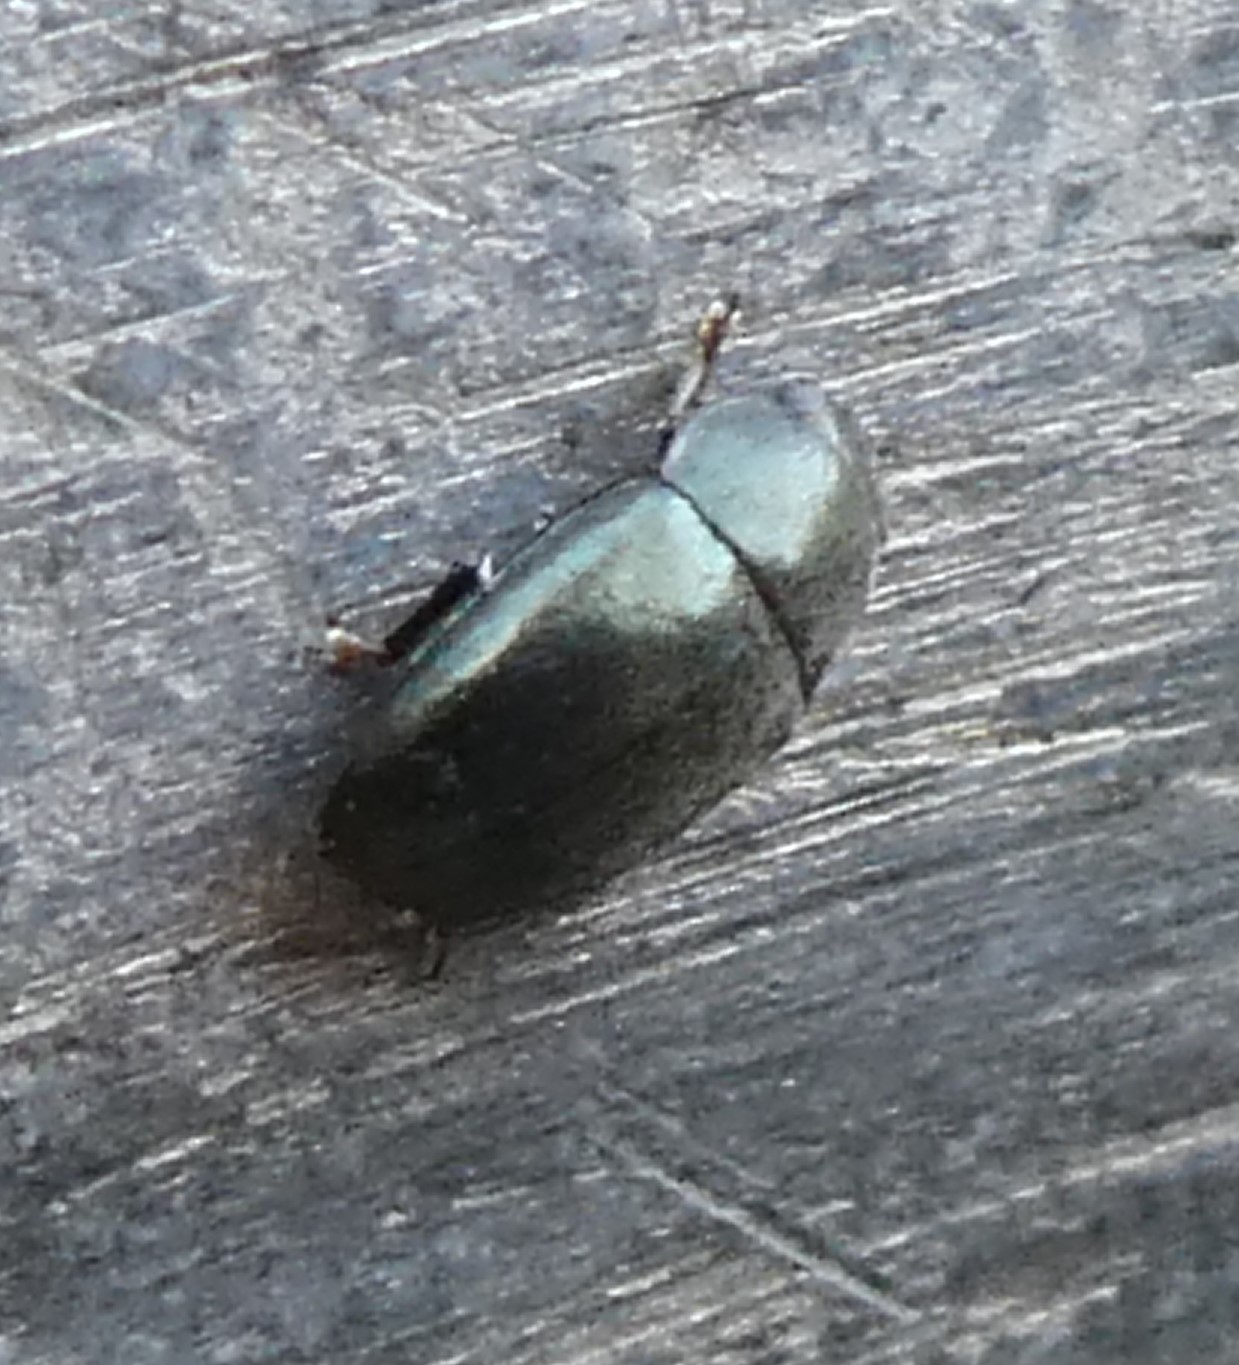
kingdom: Animalia
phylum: Arthropoda
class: Insecta
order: Coleoptera
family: Nitidulidae
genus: Brassicogethes
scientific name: Brassicogethes aeneus
